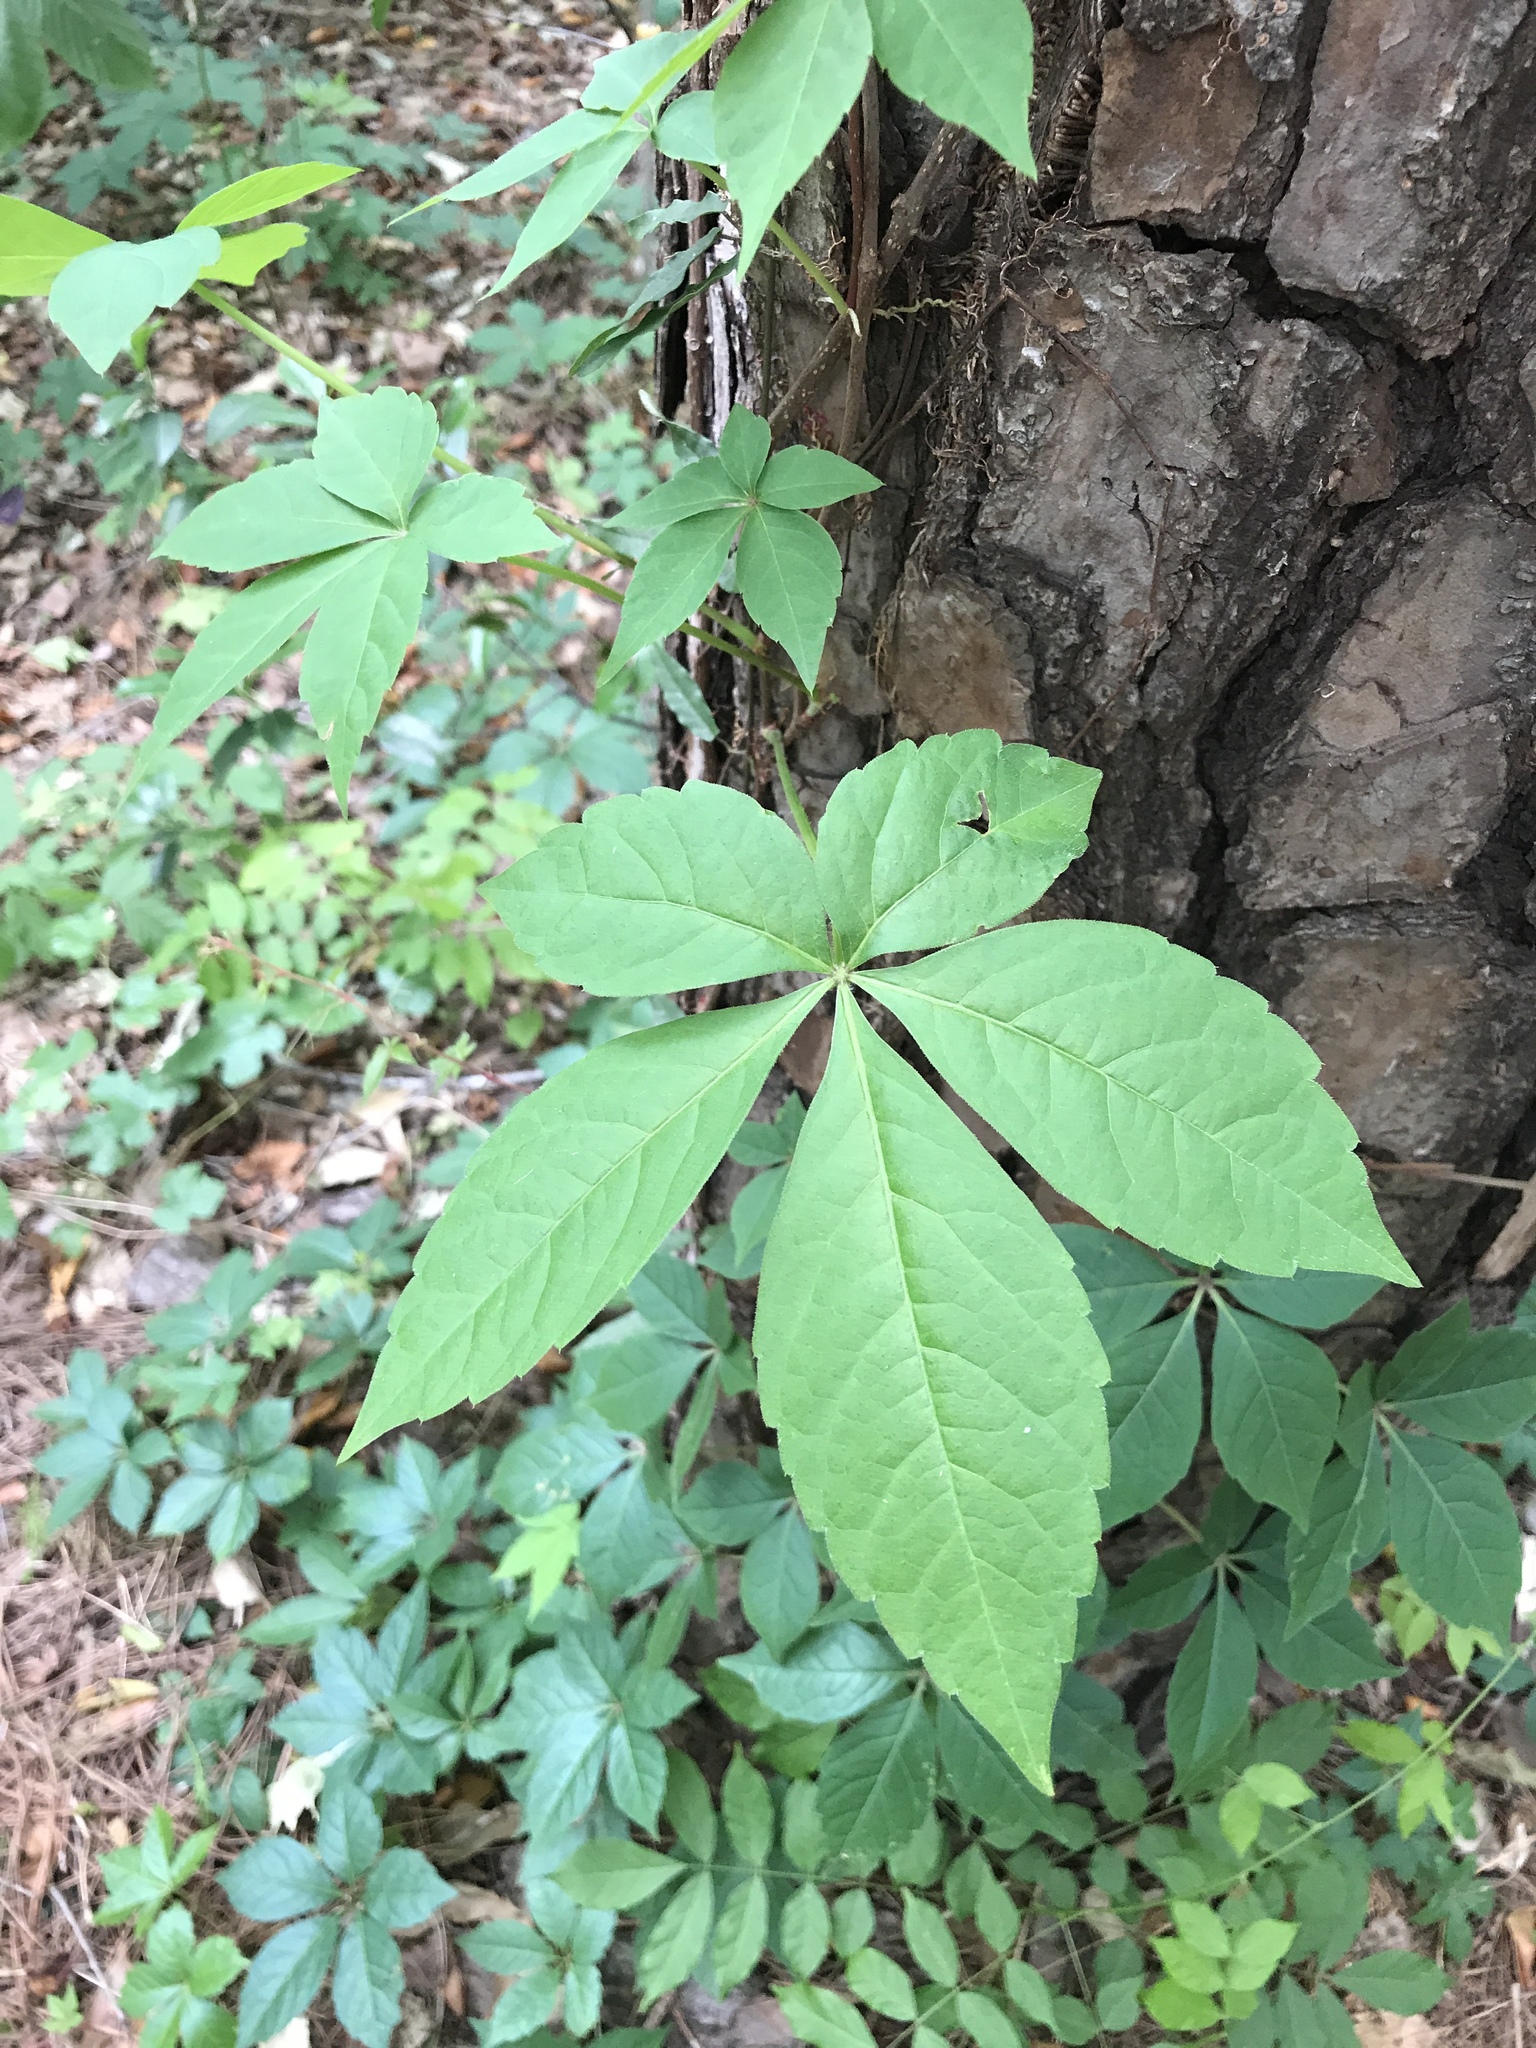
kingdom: Plantae
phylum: Tracheophyta
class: Magnoliopsida
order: Vitales
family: Vitaceae
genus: Parthenocissus
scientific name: Parthenocissus quinquefolia
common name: Virginia-creeper
